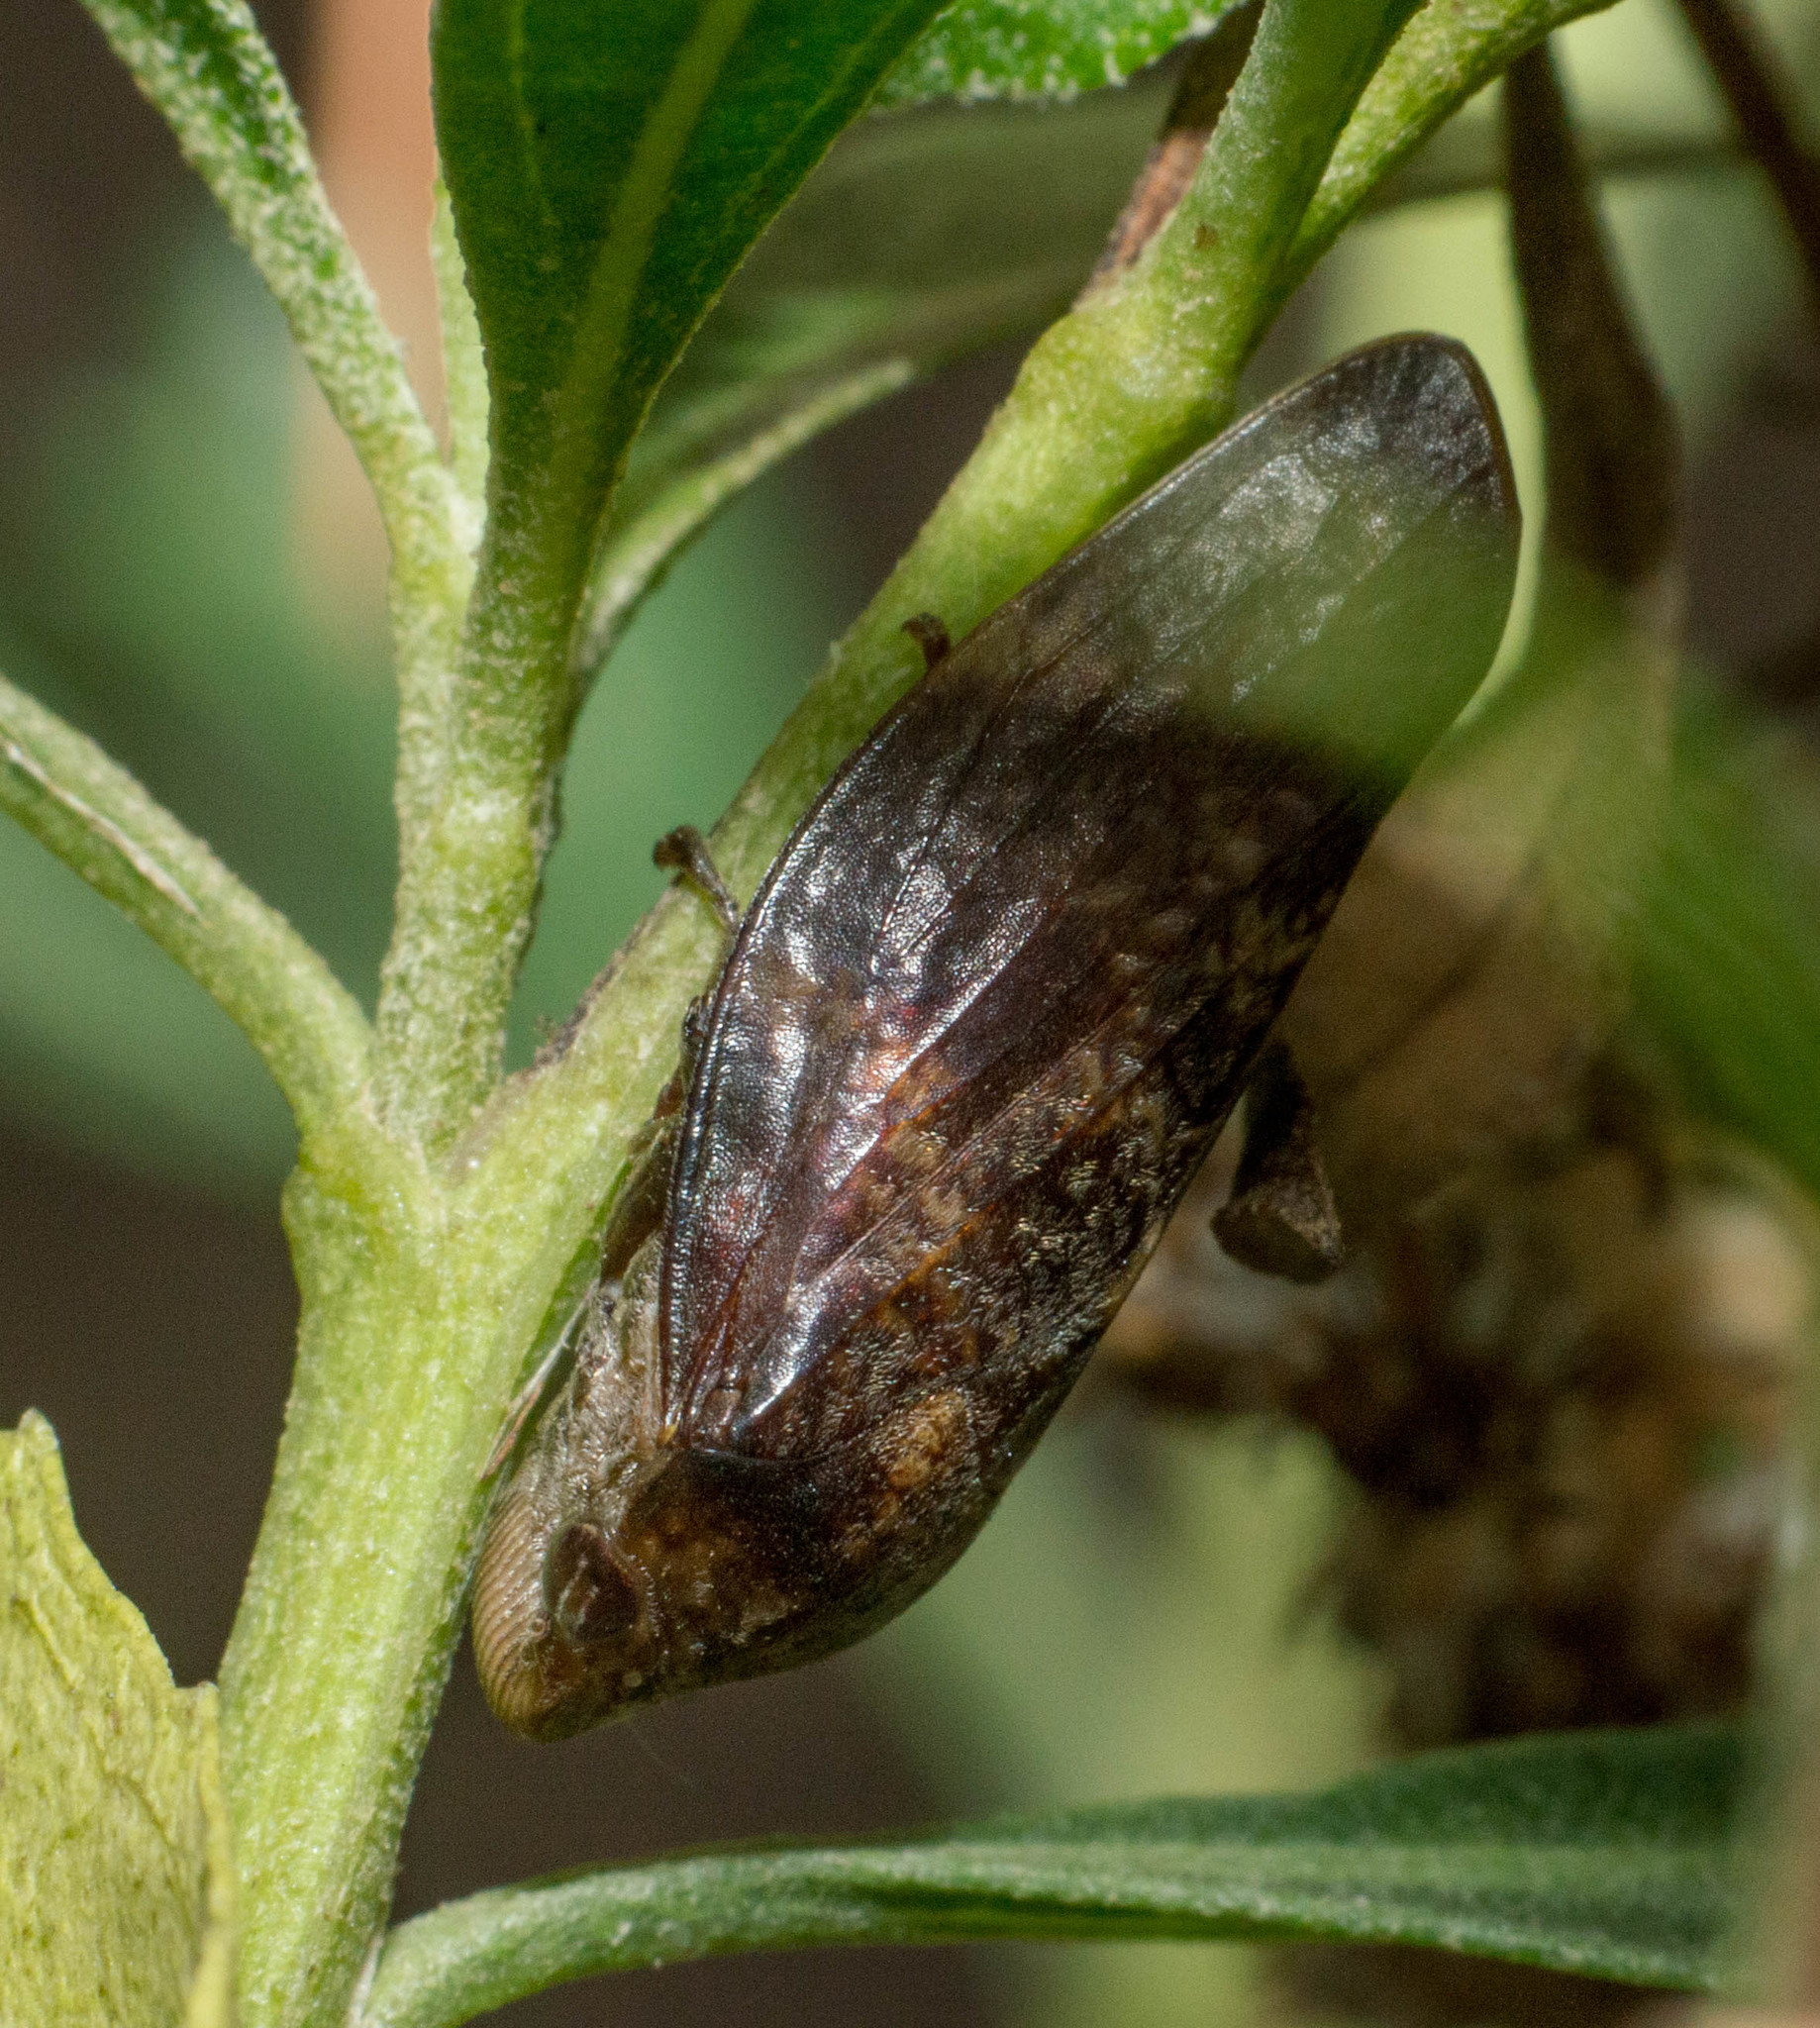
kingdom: Animalia
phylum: Arthropoda
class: Insecta
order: Hemiptera
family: Aphrophoridae
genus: Cephisus
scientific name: Cephisus siccifolius
